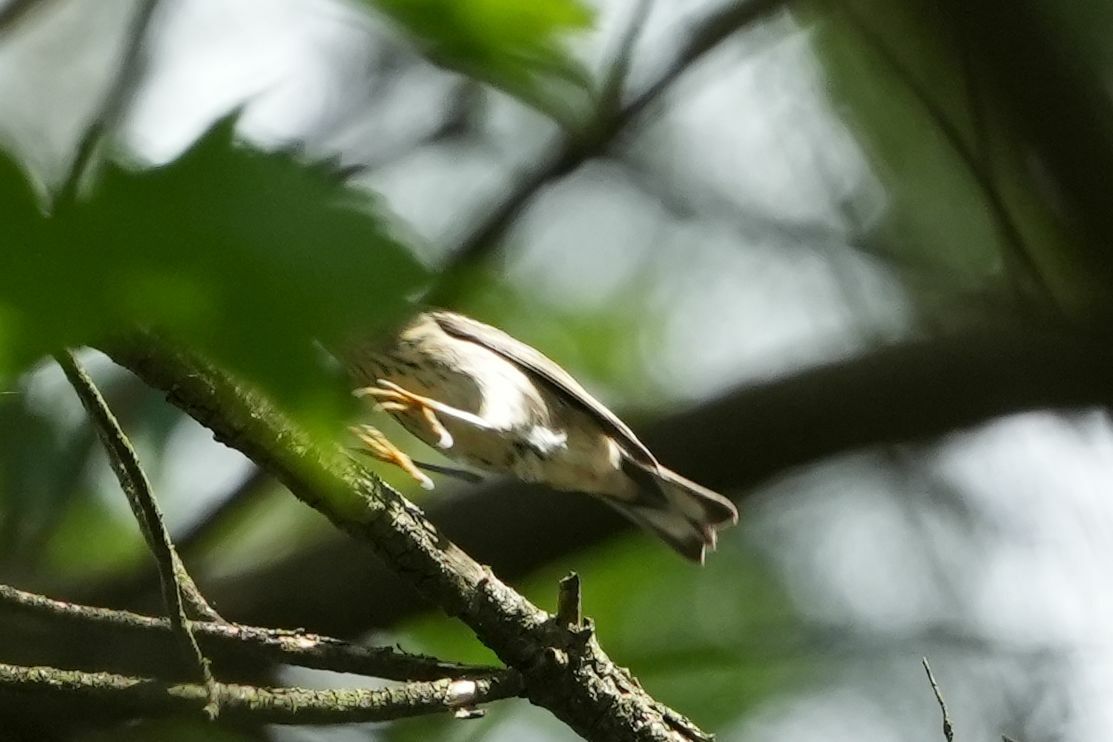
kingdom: Animalia
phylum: Chordata
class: Aves
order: Passeriformes
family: Parulidae
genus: Setophaga
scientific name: Setophaga tigrina
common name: Cape may warbler
